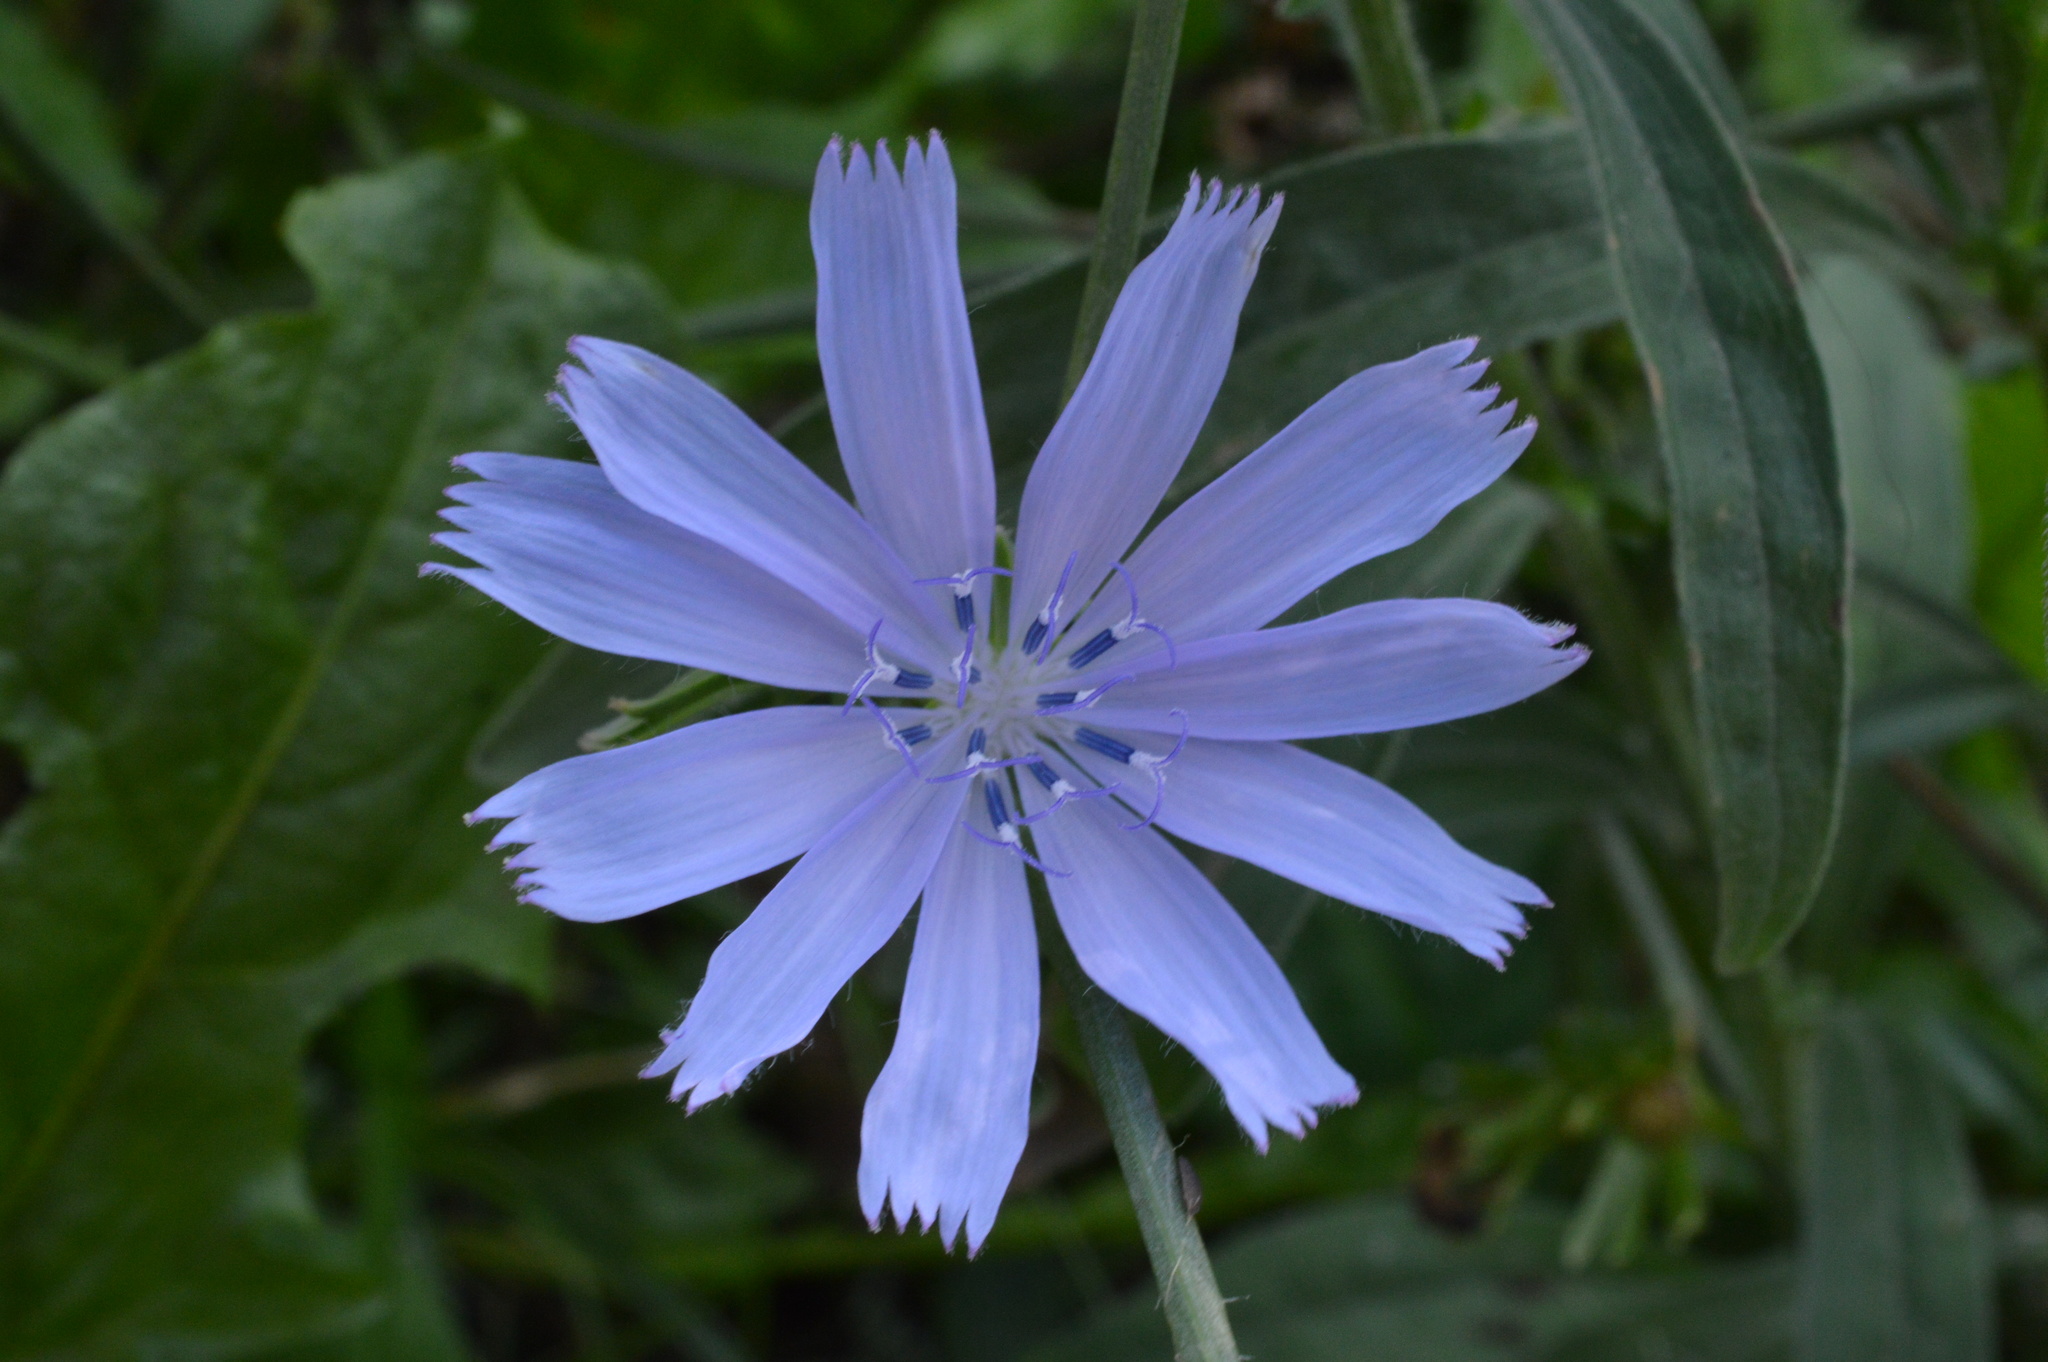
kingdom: Plantae
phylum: Tracheophyta
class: Magnoliopsida
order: Asterales
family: Asteraceae
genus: Cichorium
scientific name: Cichorium intybus
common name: Chicory
